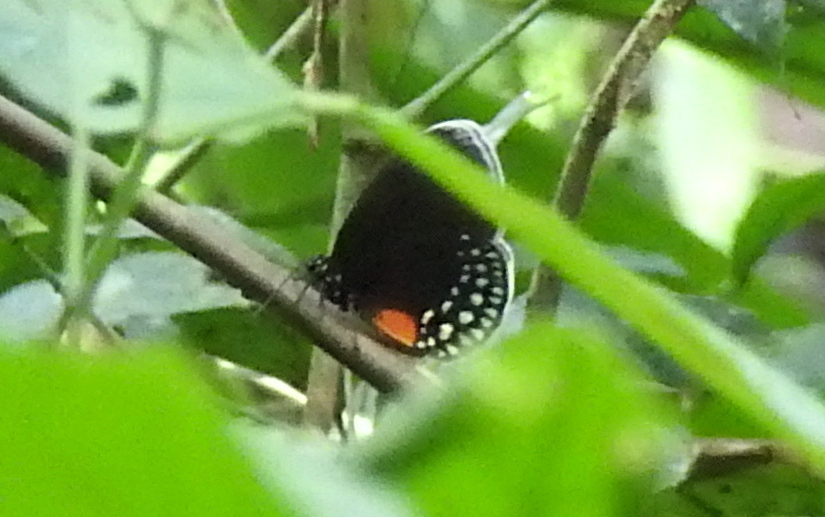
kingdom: Animalia
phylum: Arthropoda
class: Insecta
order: Lepidoptera
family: Lycaenidae
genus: Eumaeus
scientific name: Eumaeus godartii
